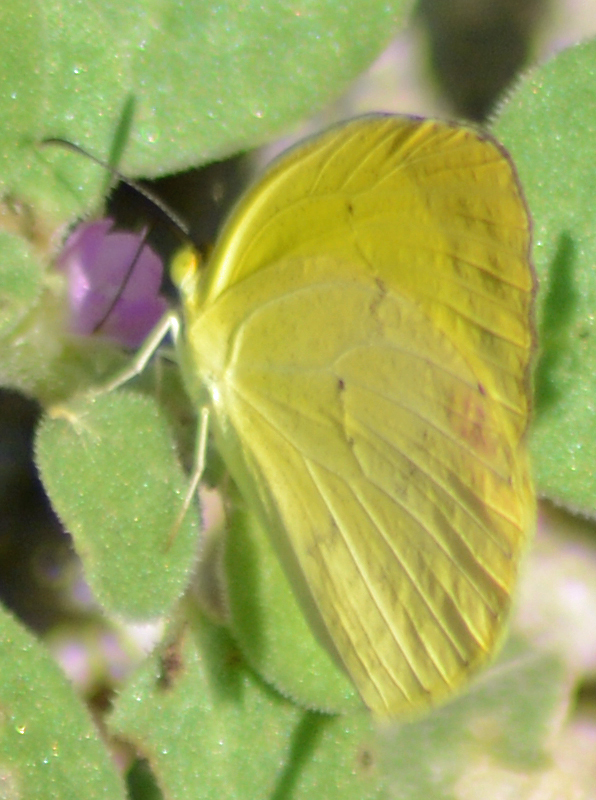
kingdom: Animalia
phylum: Arthropoda
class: Insecta
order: Lepidoptera
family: Pieridae
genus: Pyrisitia
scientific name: Pyrisitia nise
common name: Mimosa yellow
